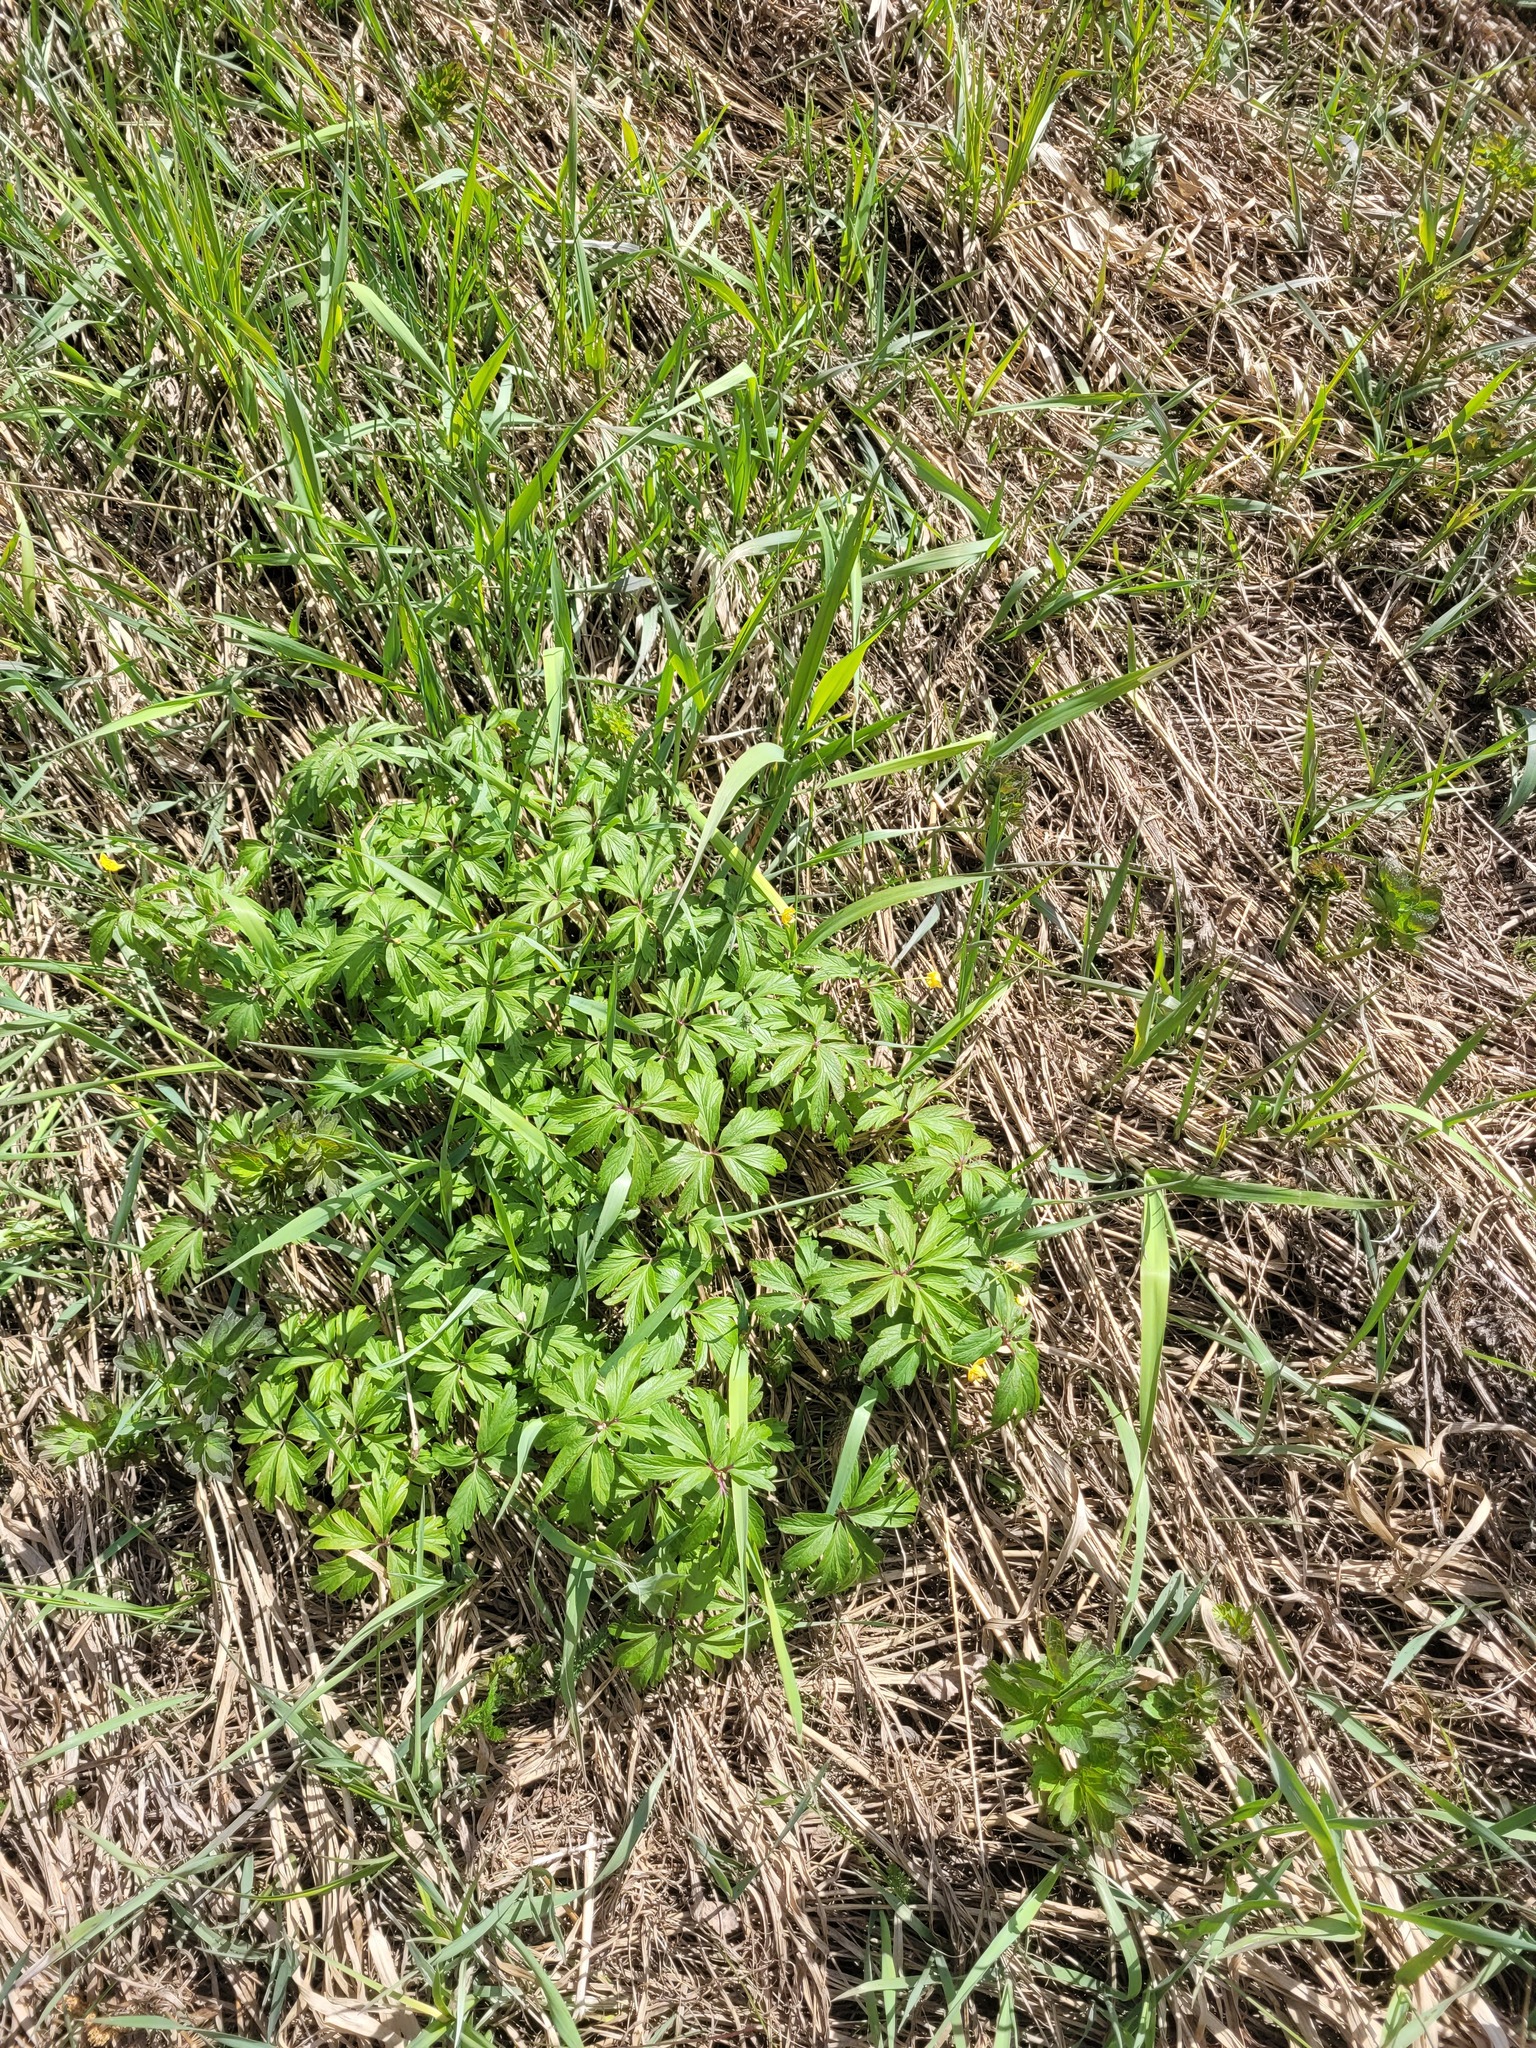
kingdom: Plantae
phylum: Tracheophyta
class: Magnoliopsida
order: Ranunculales
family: Ranunculaceae
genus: Anemone
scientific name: Anemone ranunculoides
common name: Yellow anemone
